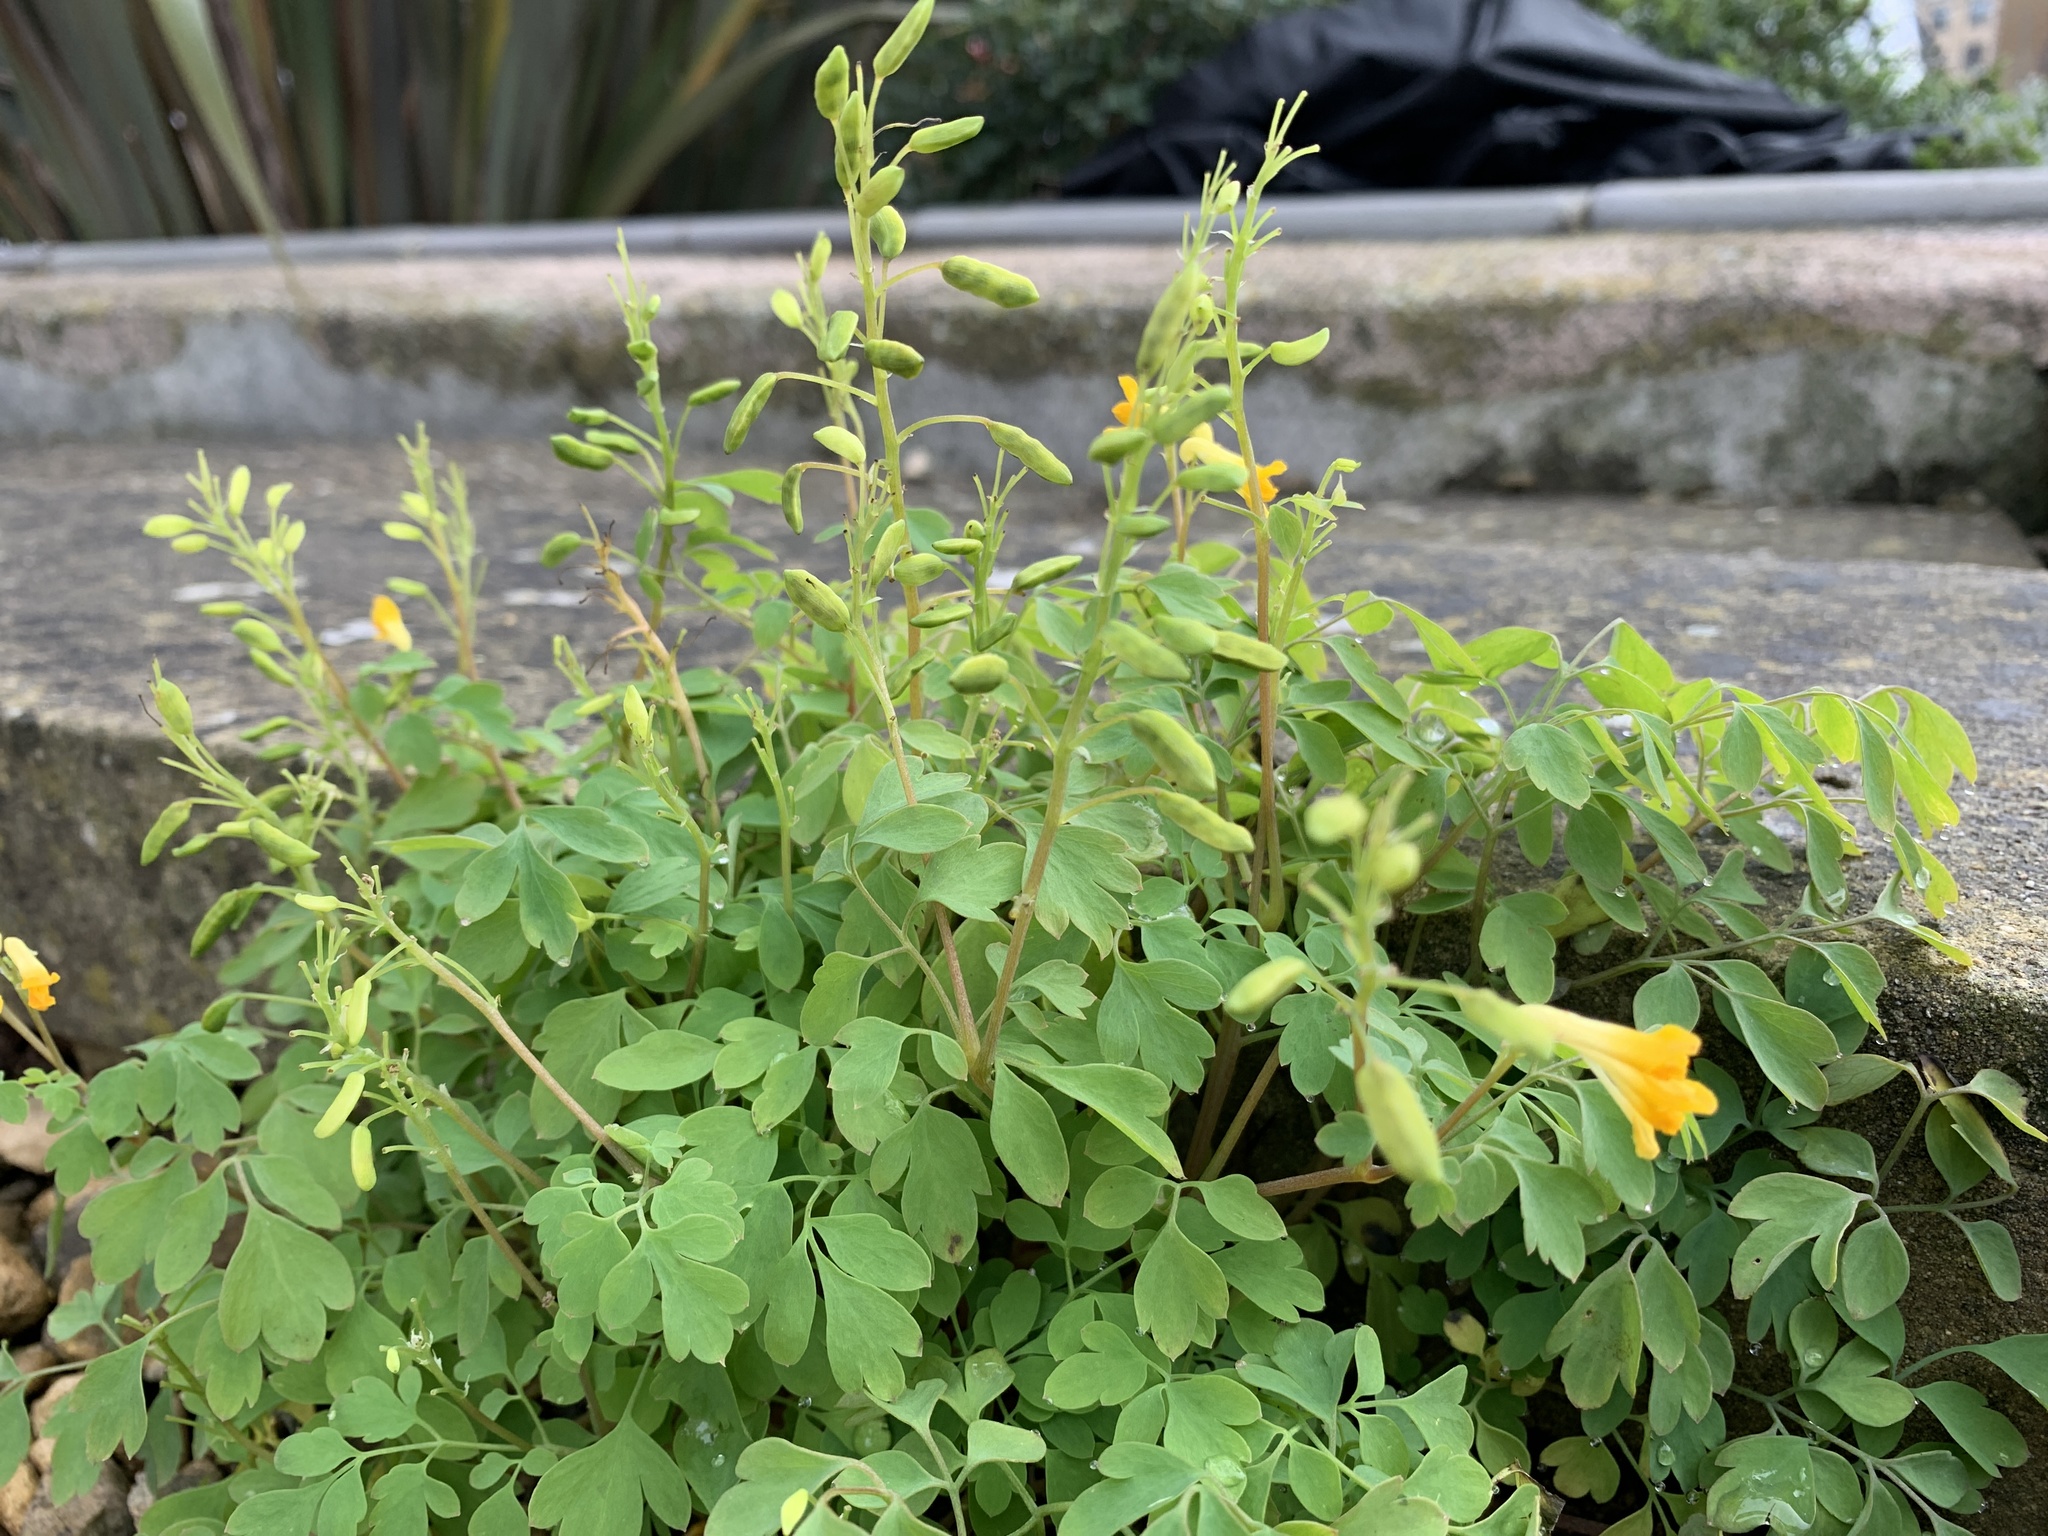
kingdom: Plantae
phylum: Tracheophyta
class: Magnoliopsida
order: Ranunculales
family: Papaveraceae
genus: Pseudofumaria
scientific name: Pseudofumaria lutea
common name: Yellow corydalis
